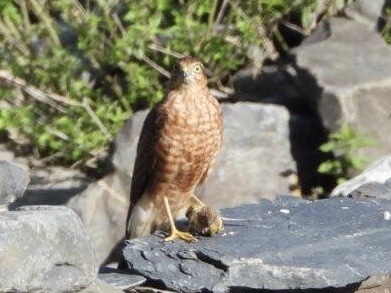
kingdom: Animalia
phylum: Chordata
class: Aves
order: Accipitriformes
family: Accipitridae
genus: Accipiter
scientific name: Accipiter nisus
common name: Eurasian sparrowhawk
